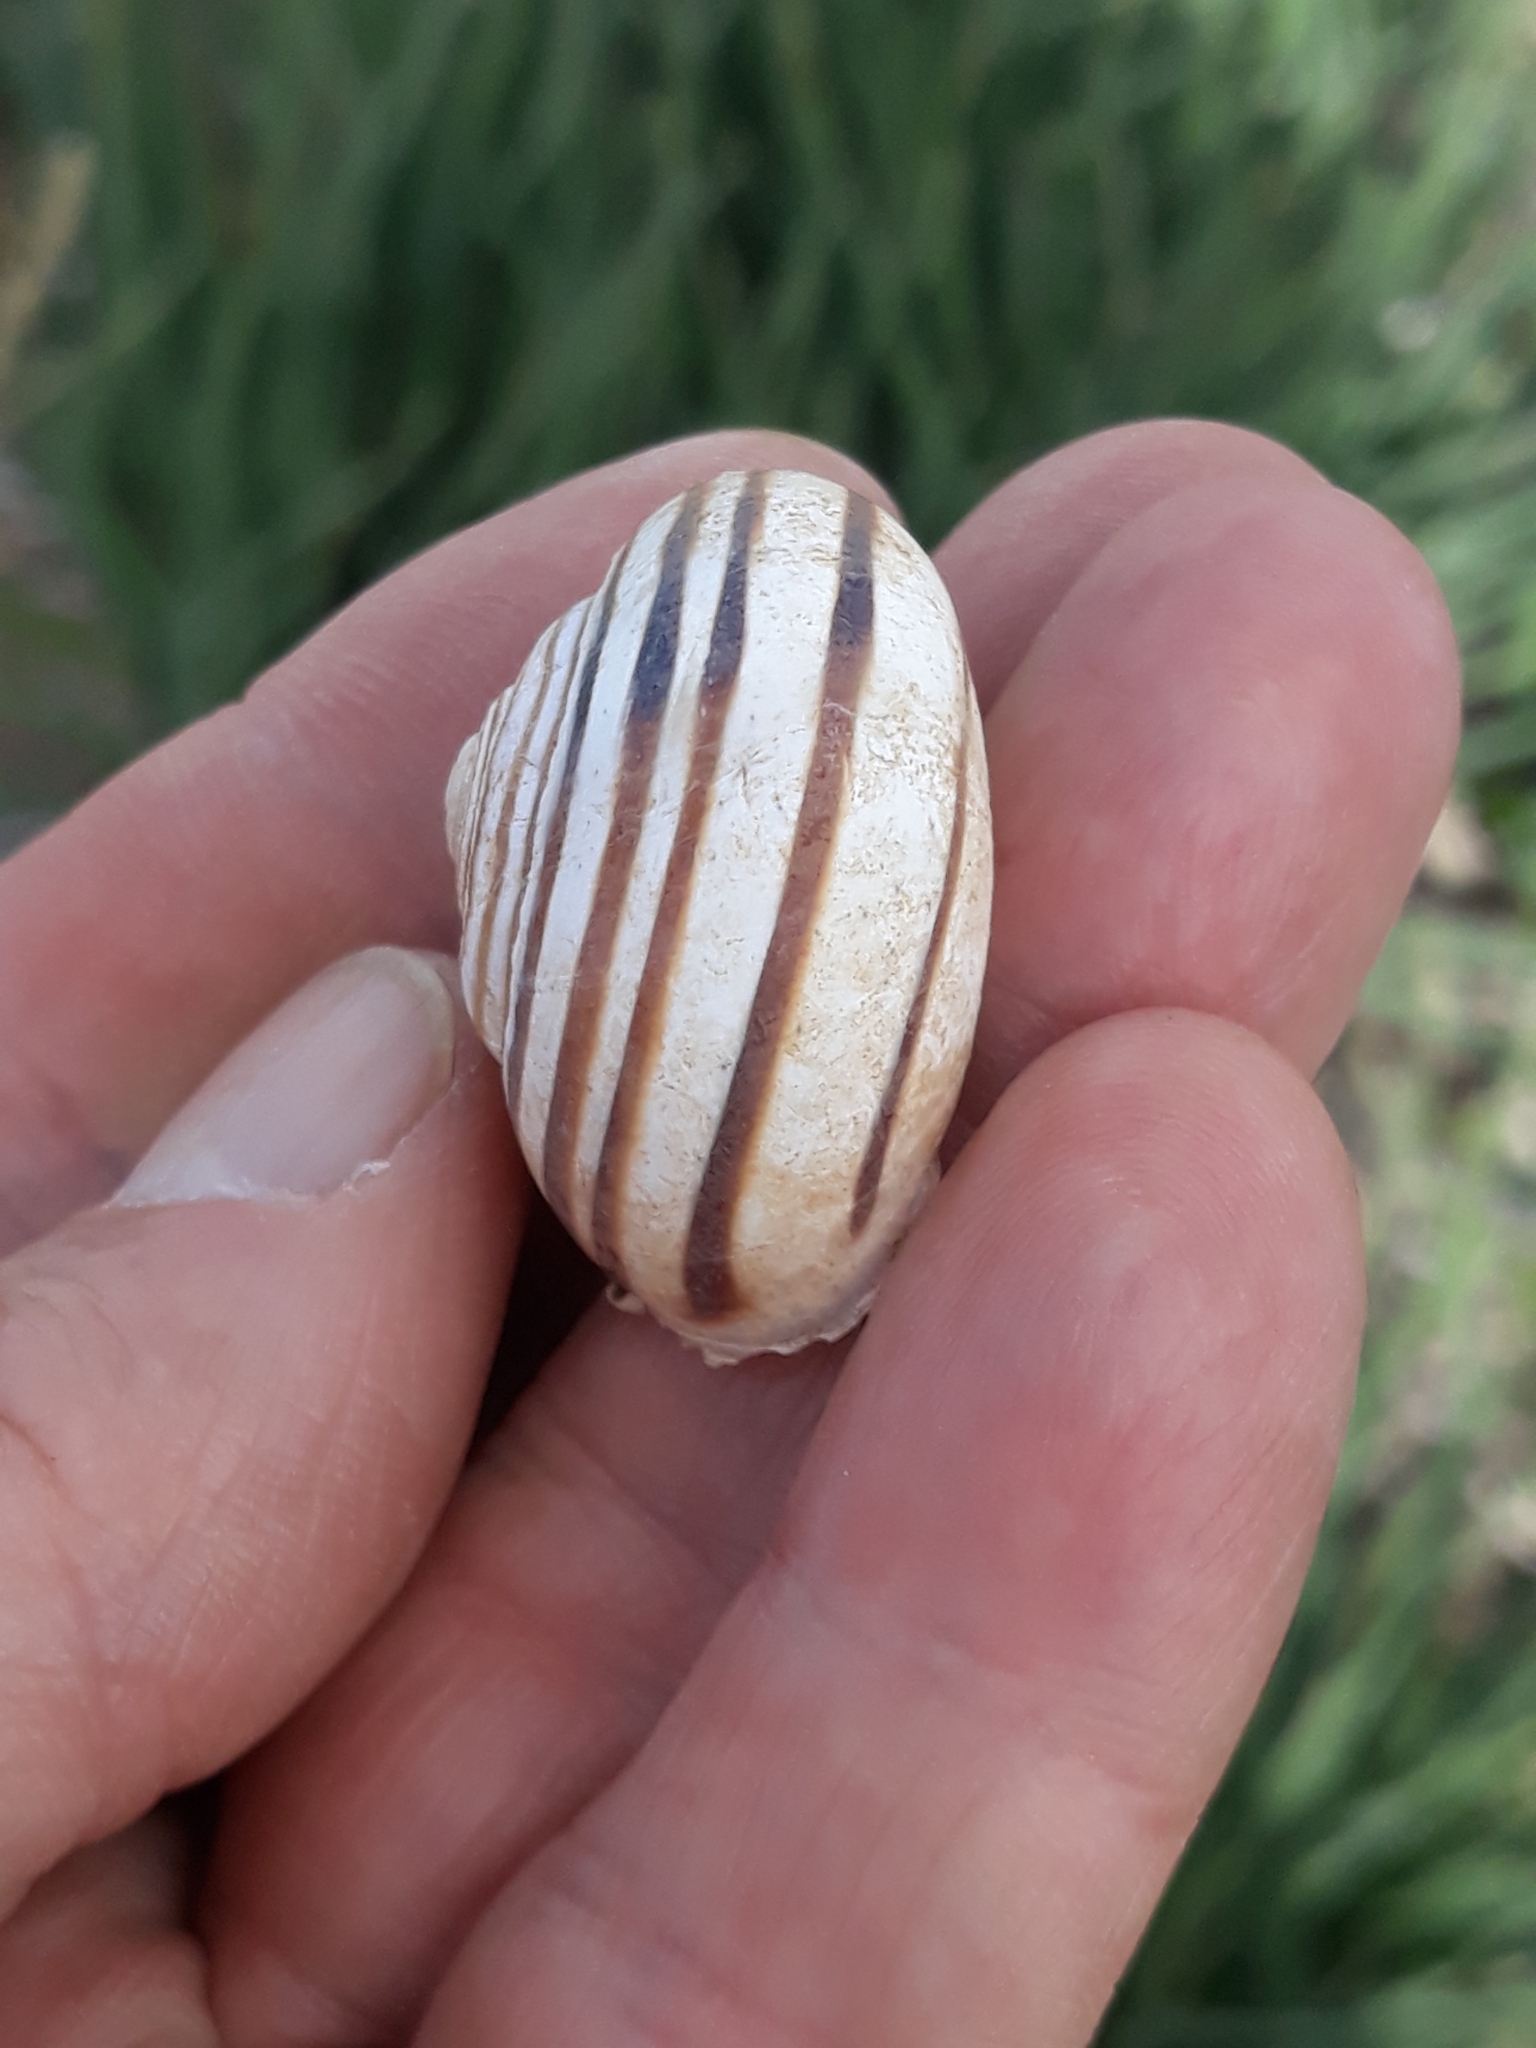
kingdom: Animalia
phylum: Mollusca
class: Gastropoda
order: Stylommatophora
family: Helicidae
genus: Eobania
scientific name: Eobania constantina
